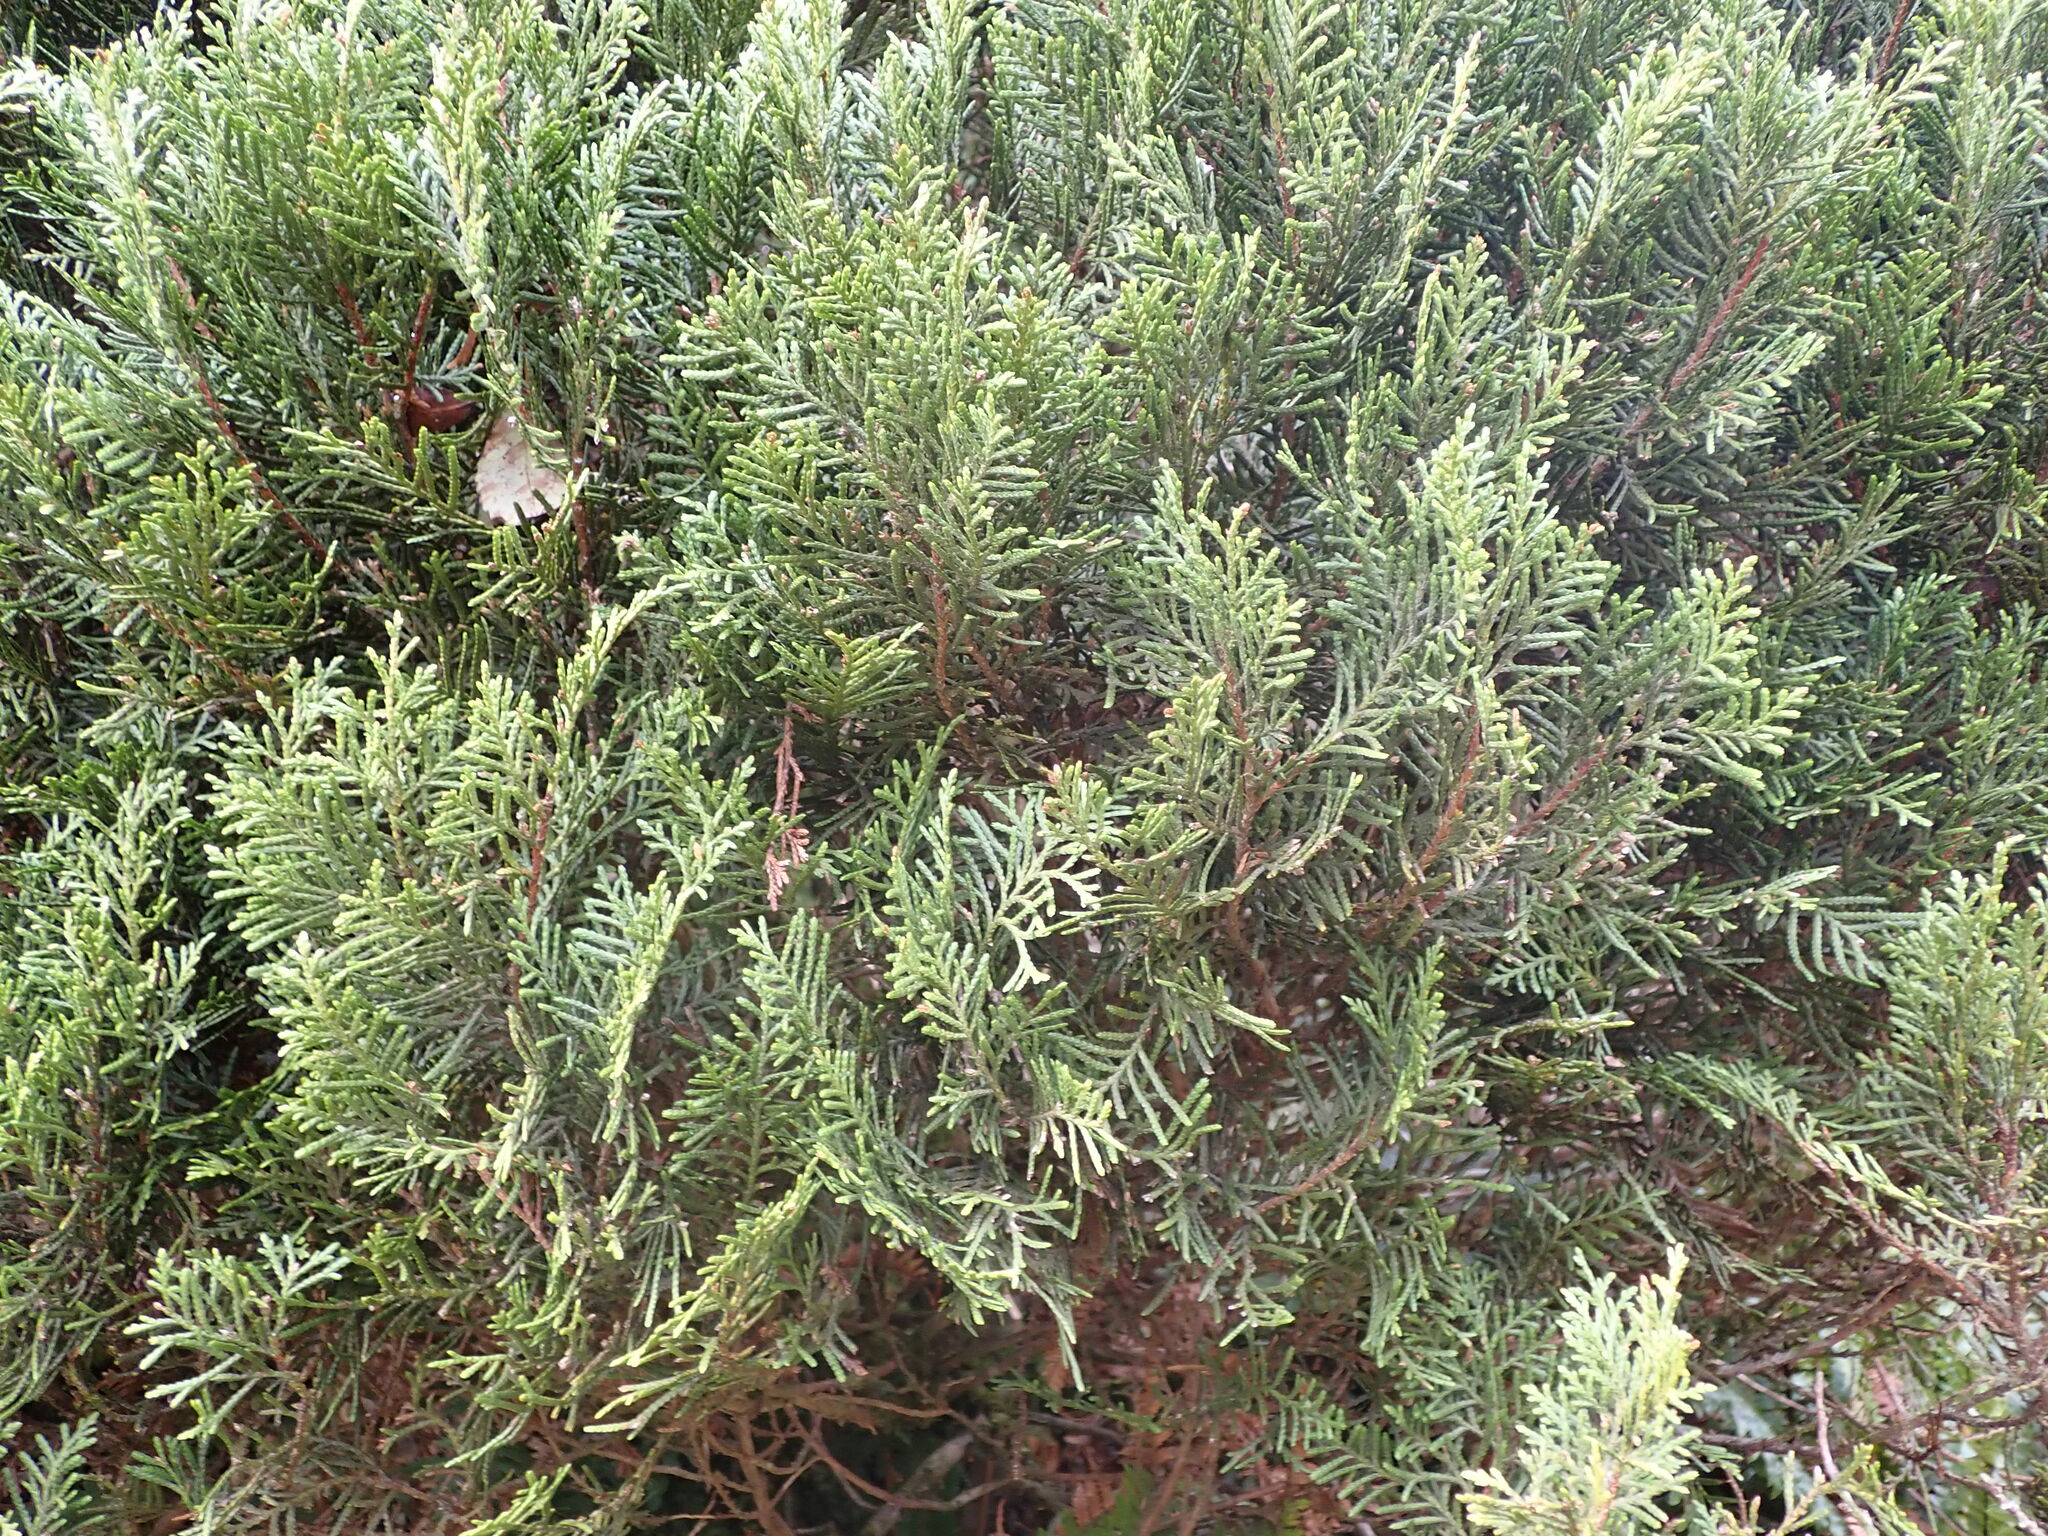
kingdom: Plantae
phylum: Tracheophyta
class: Pinopsida
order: Pinales
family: Cupressaceae
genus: Libocedrus
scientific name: Libocedrus bidwillii
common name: Cedar
